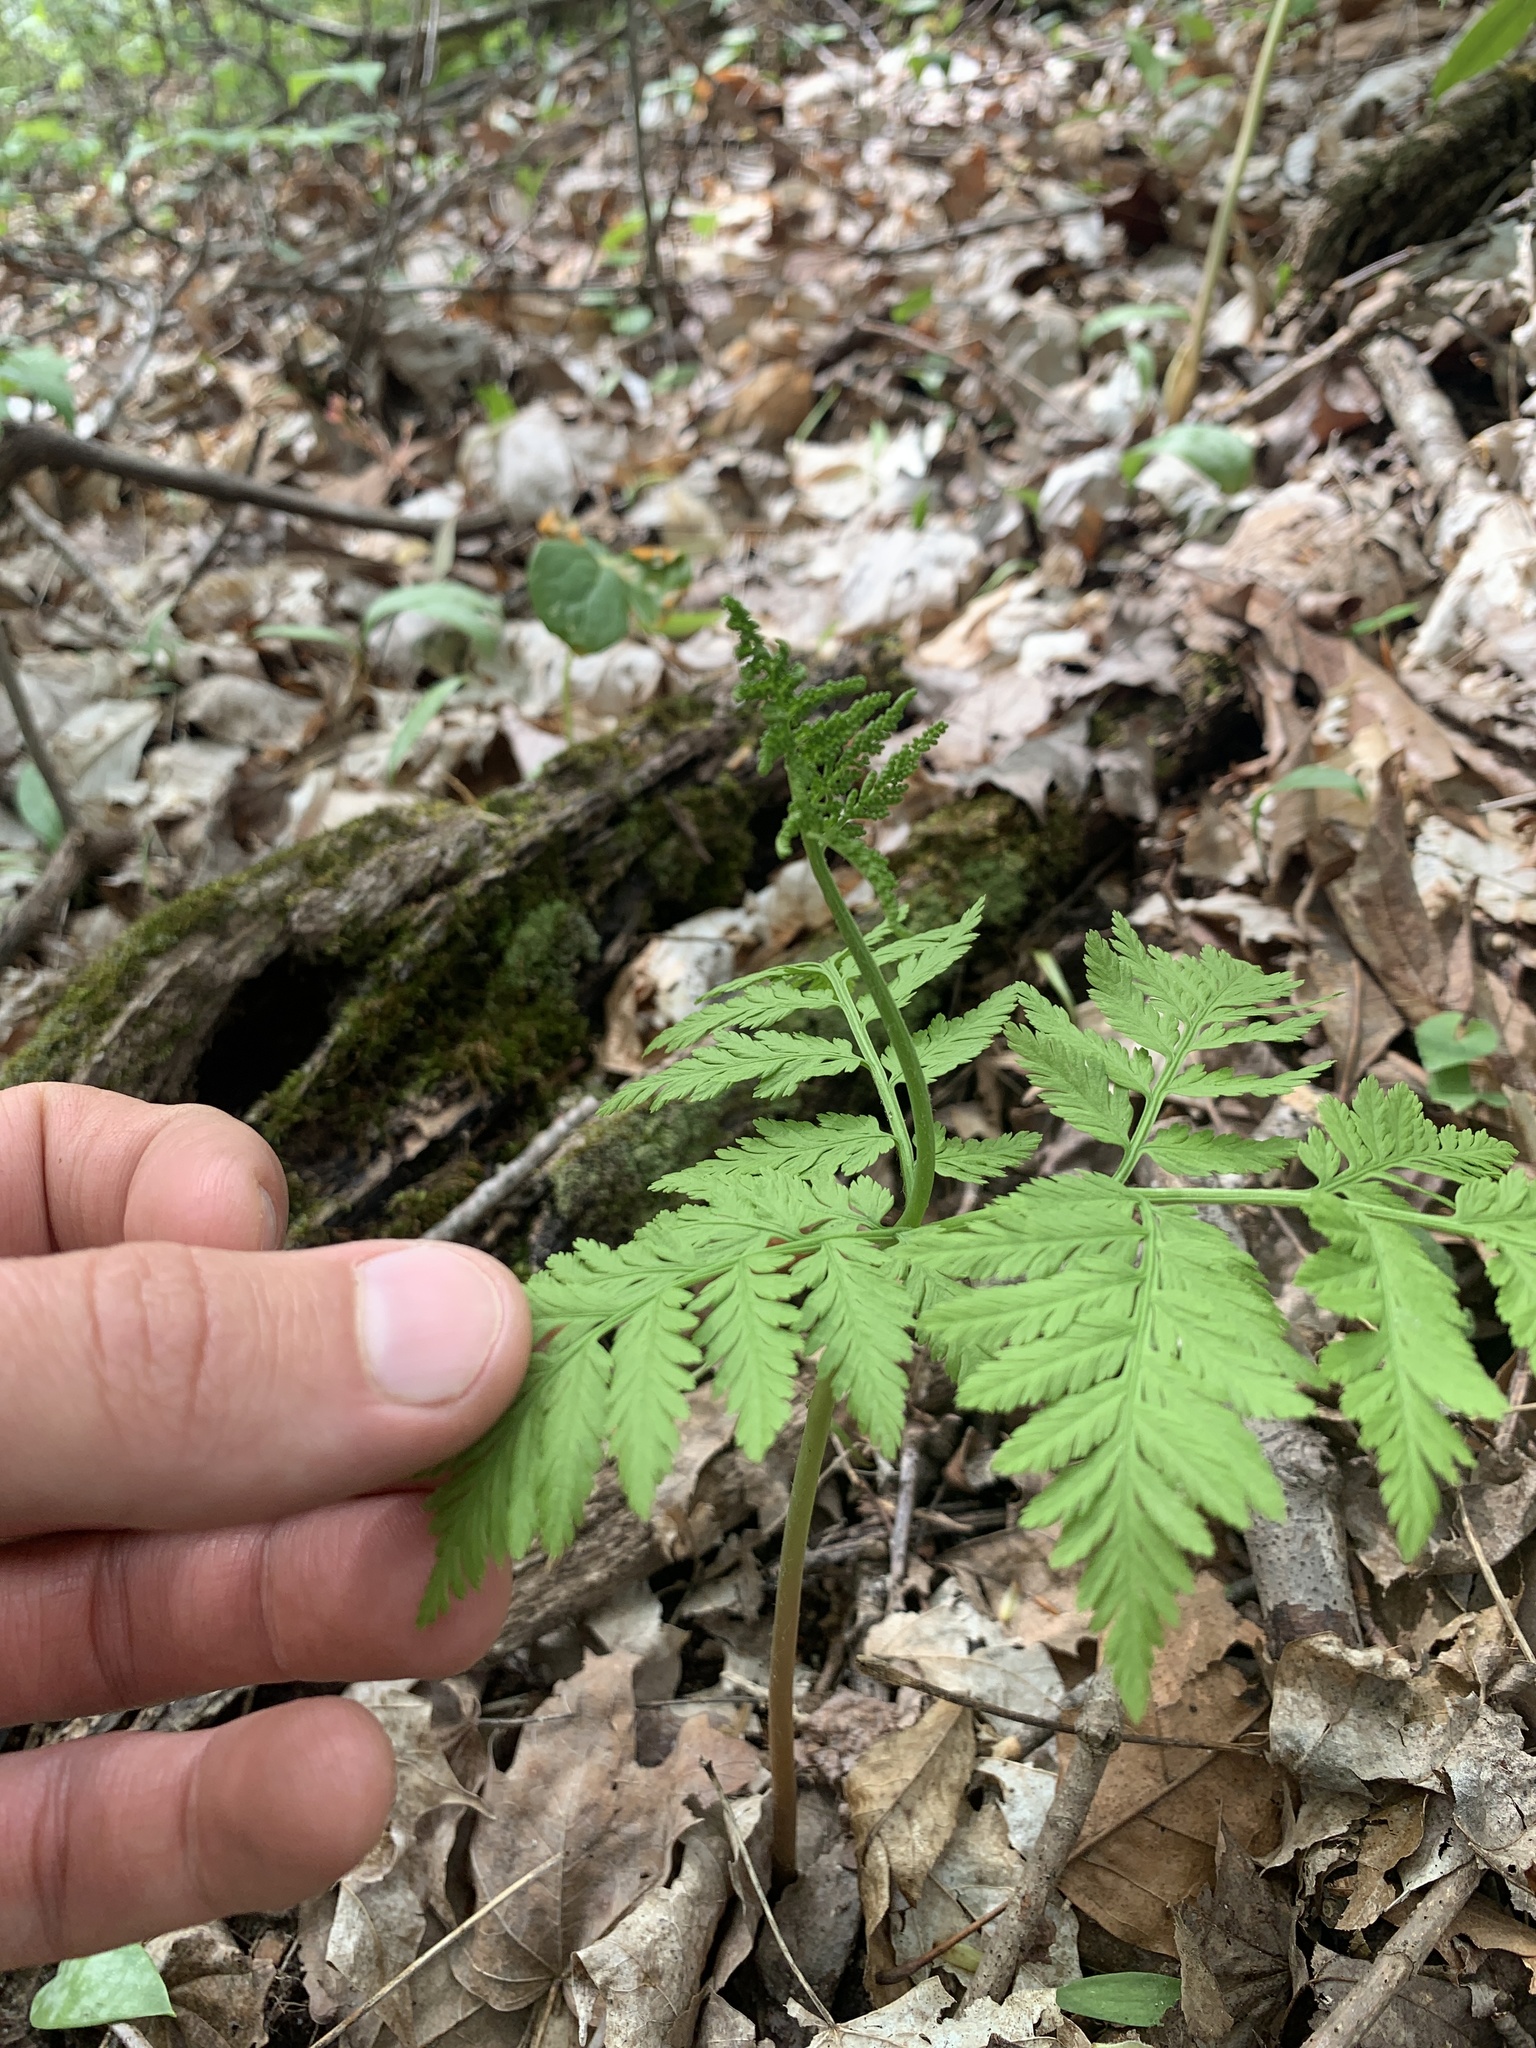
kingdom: Plantae
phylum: Tracheophyta
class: Polypodiopsida
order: Ophioglossales
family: Ophioglossaceae
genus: Botrypus
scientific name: Botrypus virginianus
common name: Common grapefern
